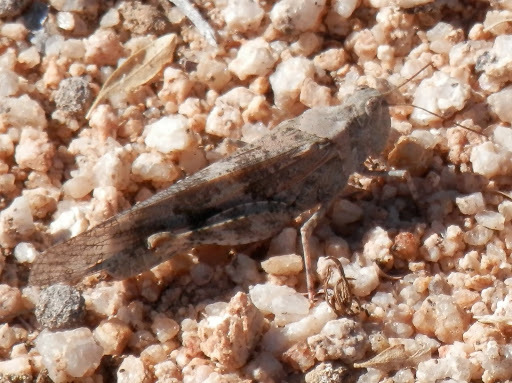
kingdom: Animalia
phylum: Arthropoda
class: Insecta
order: Orthoptera
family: Acrididae
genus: Trimerotropis
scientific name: Trimerotropis pallidipennis
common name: Pallid-winged grasshopper
